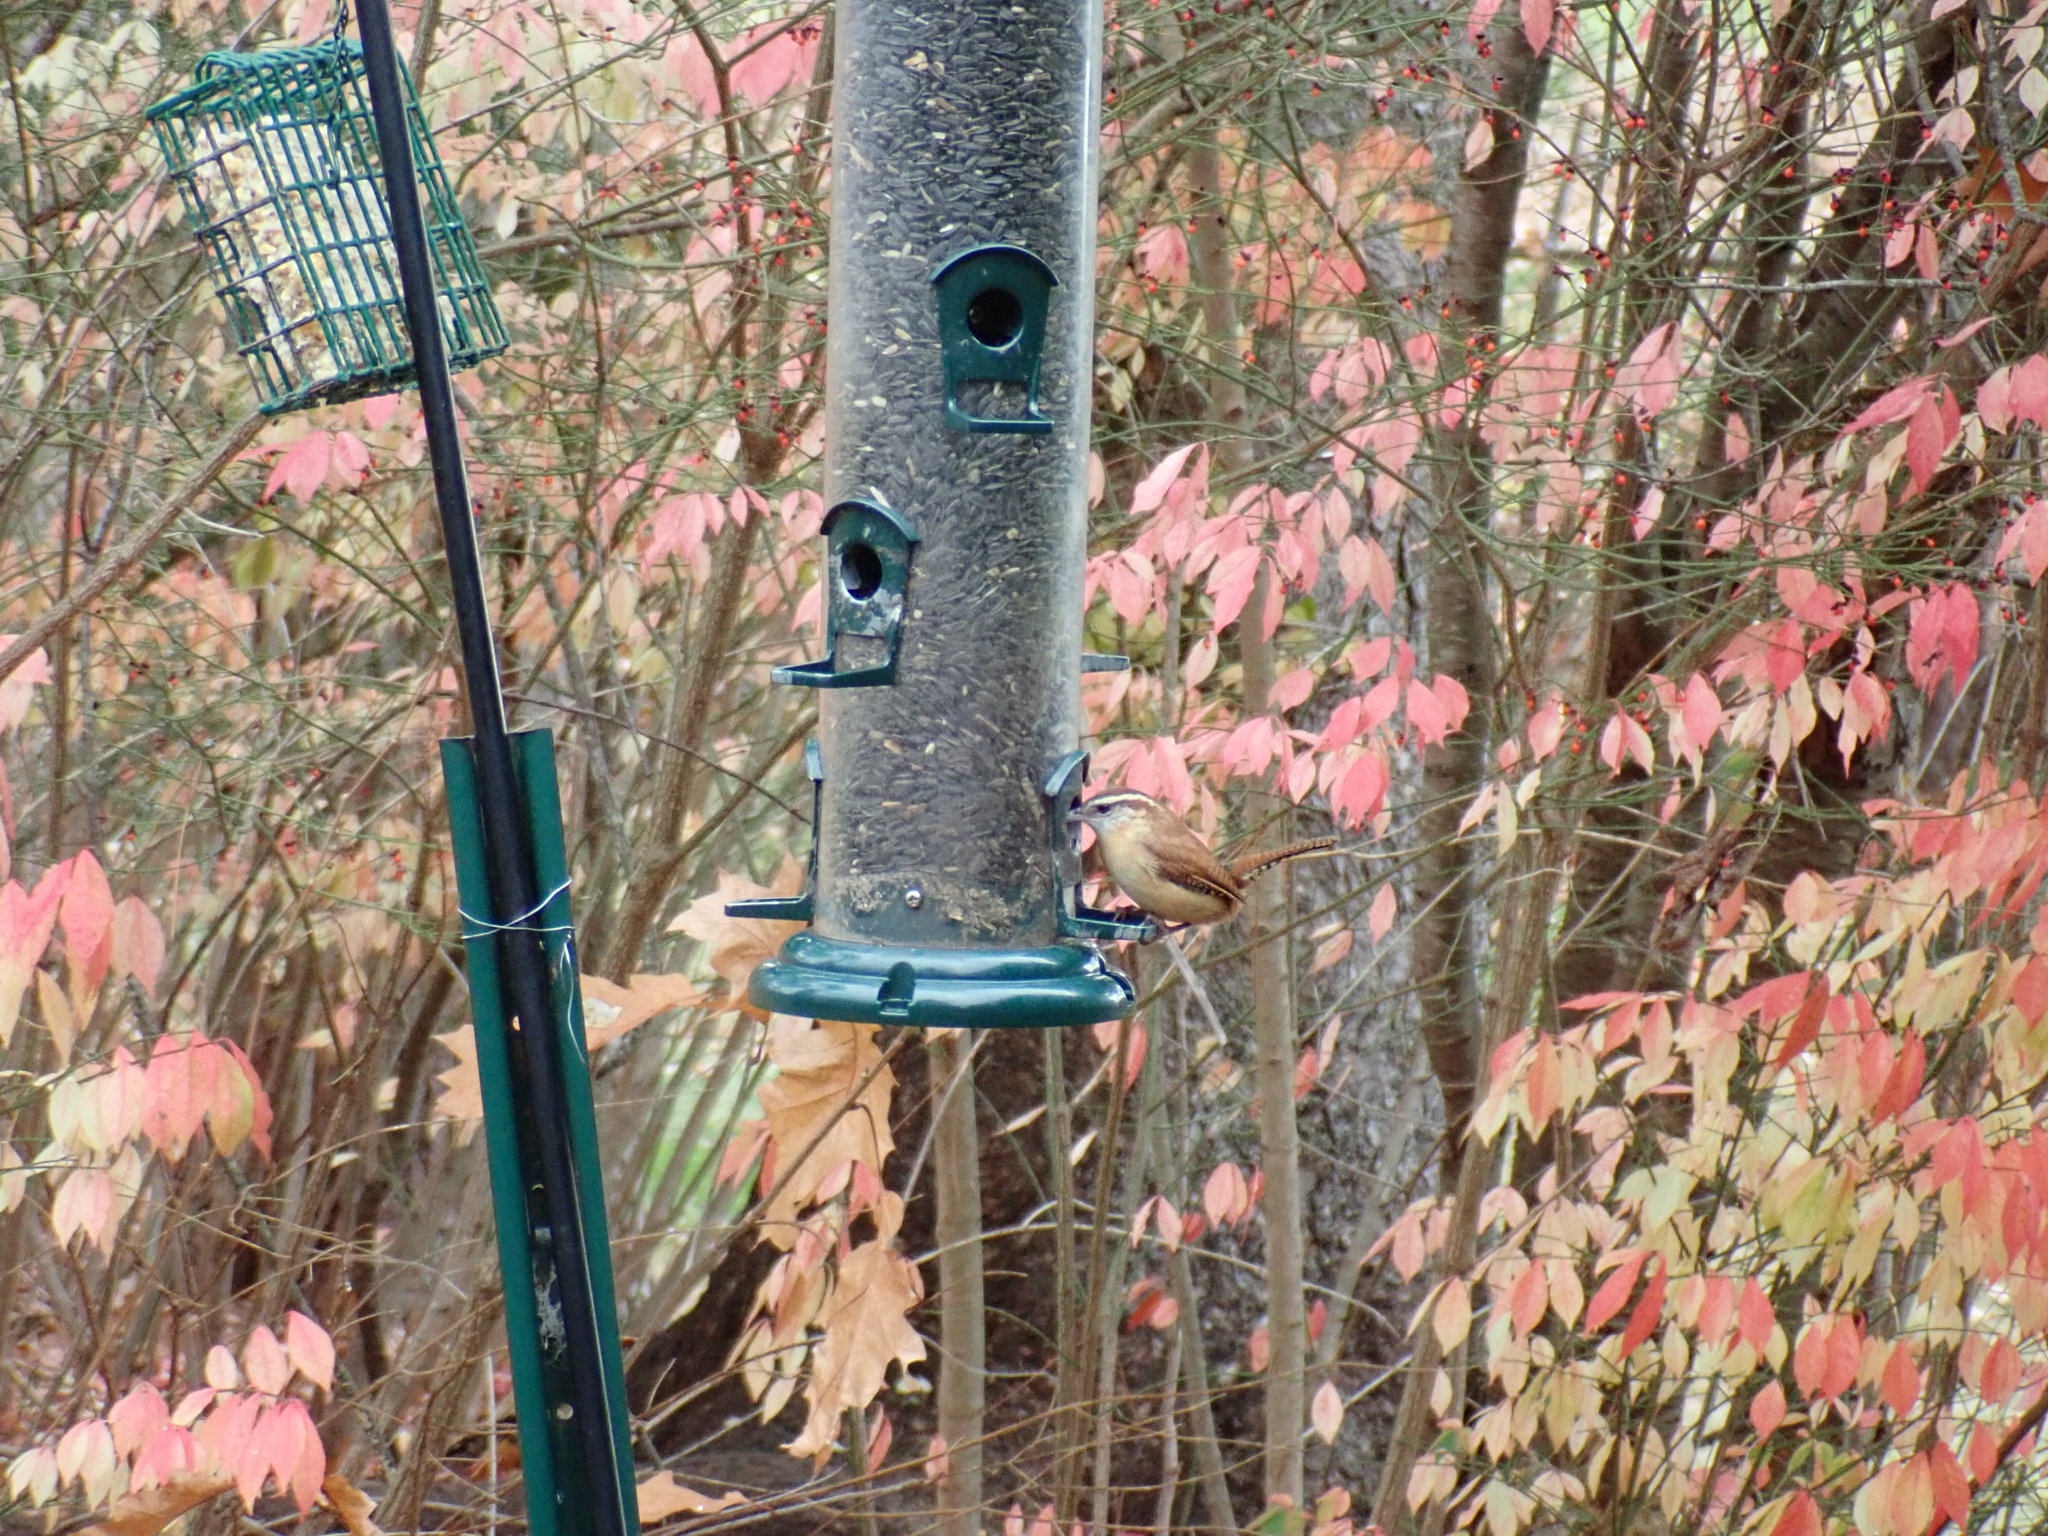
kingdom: Animalia
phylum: Chordata
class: Aves
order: Passeriformes
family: Troglodytidae
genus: Thryothorus
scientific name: Thryothorus ludovicianus
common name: Carolina wren
